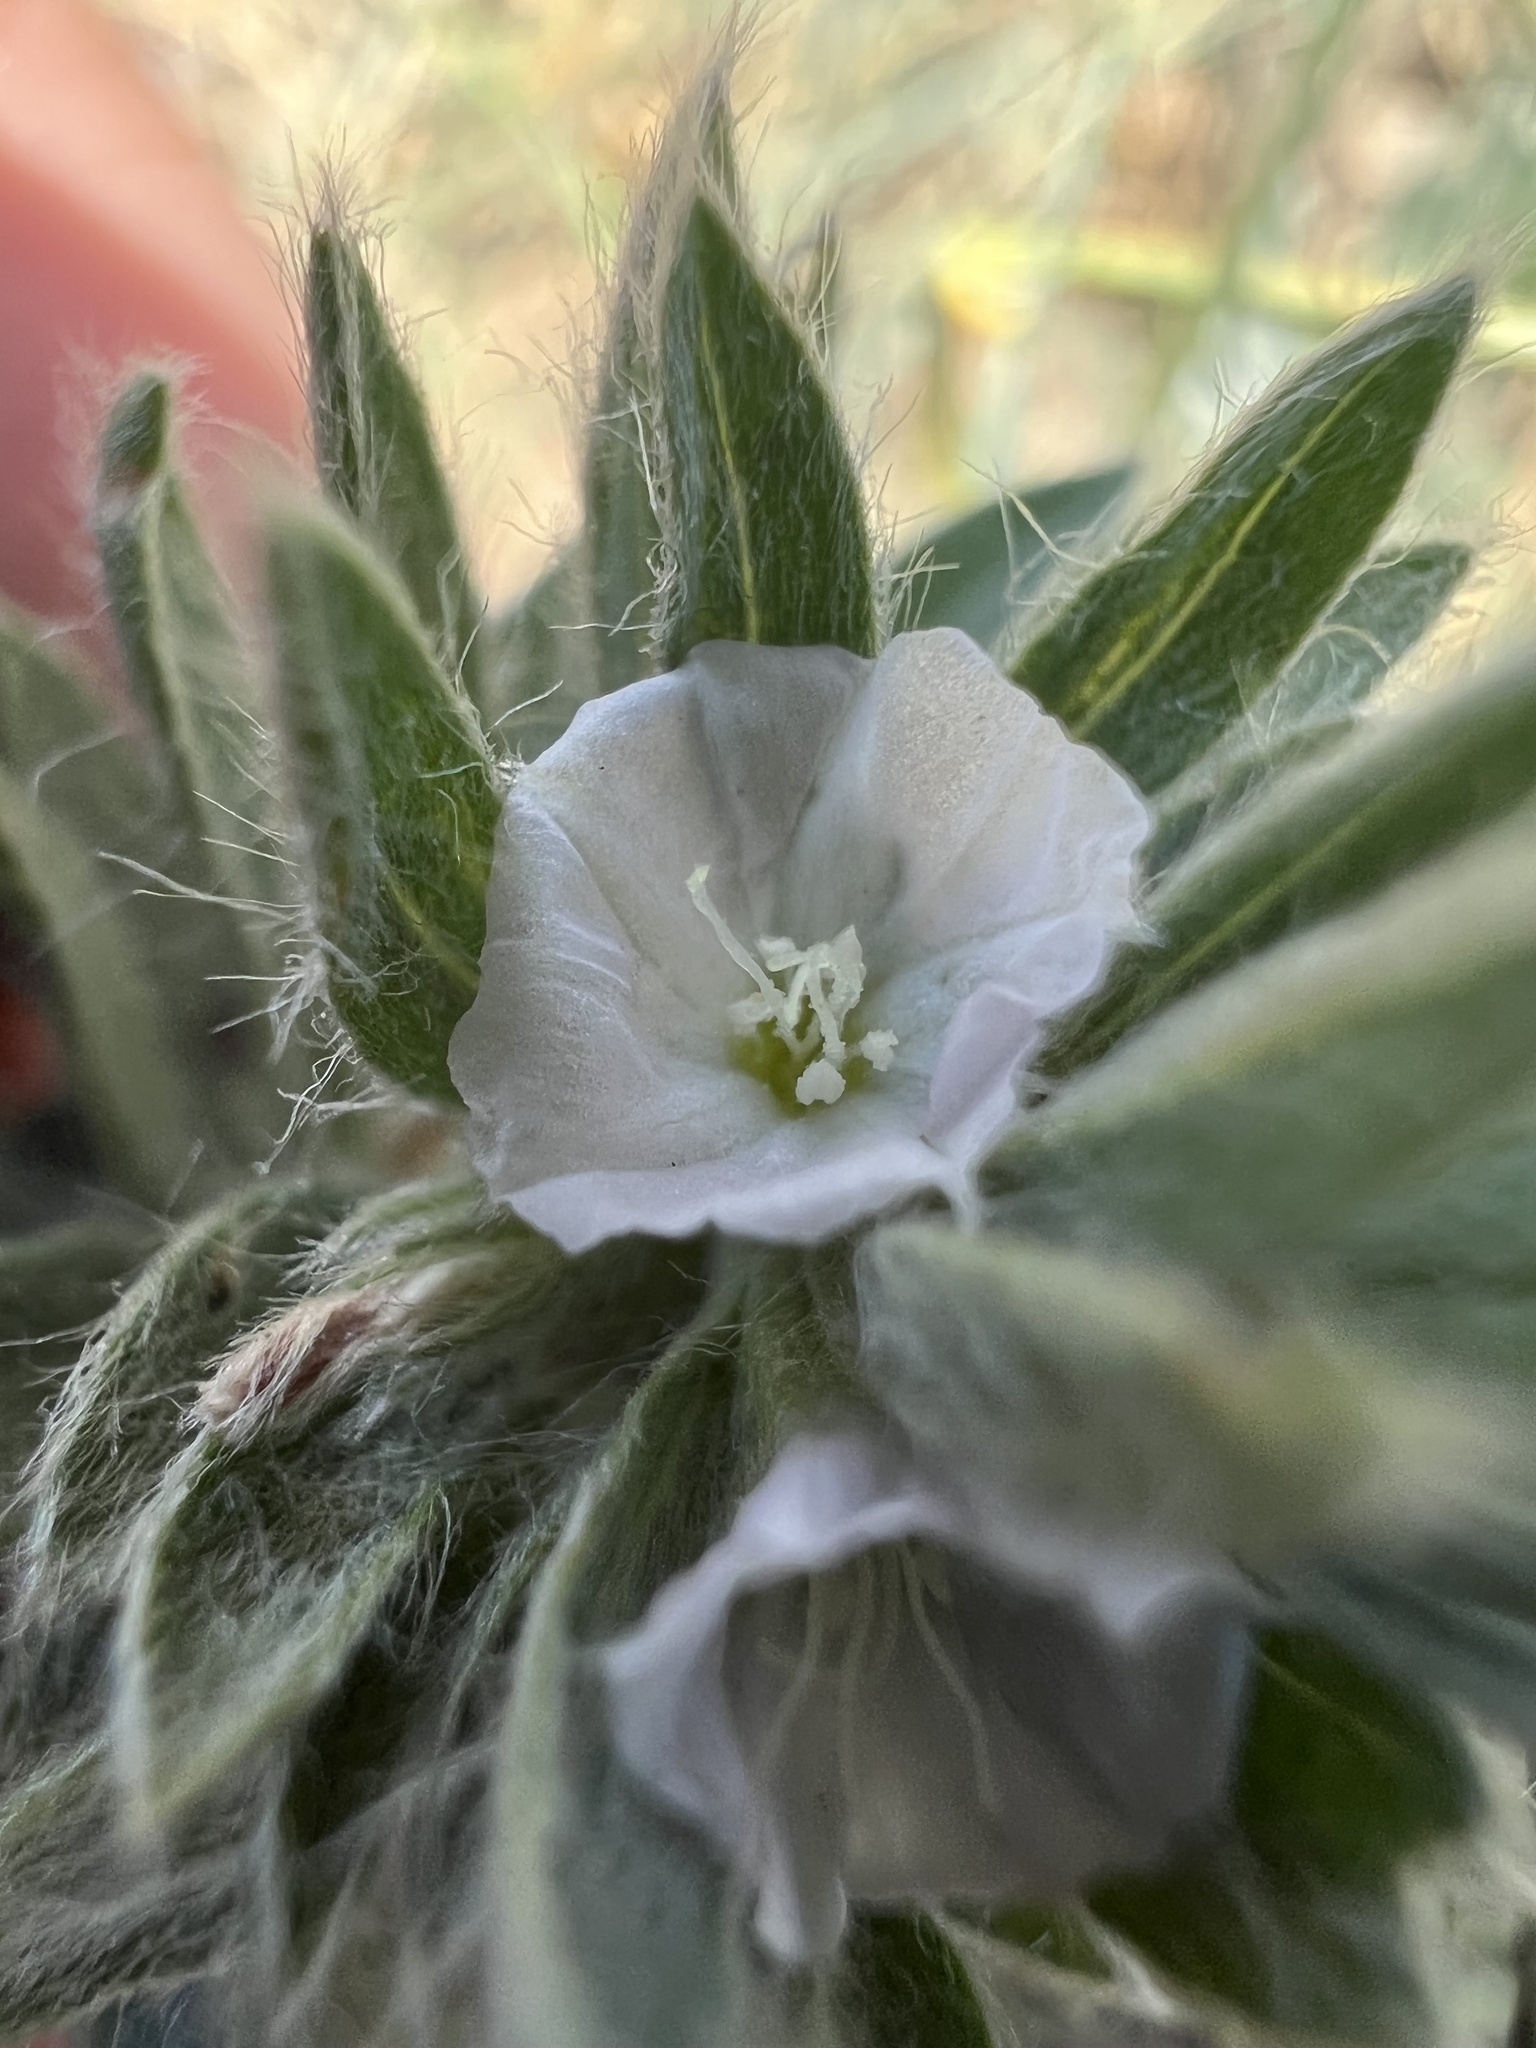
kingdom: Plantae
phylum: Tracheophyta
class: Magnoliopsida
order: Solanales
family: Convolvulaceae
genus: Evolvulus
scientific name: Evolvulus nuttallianus
